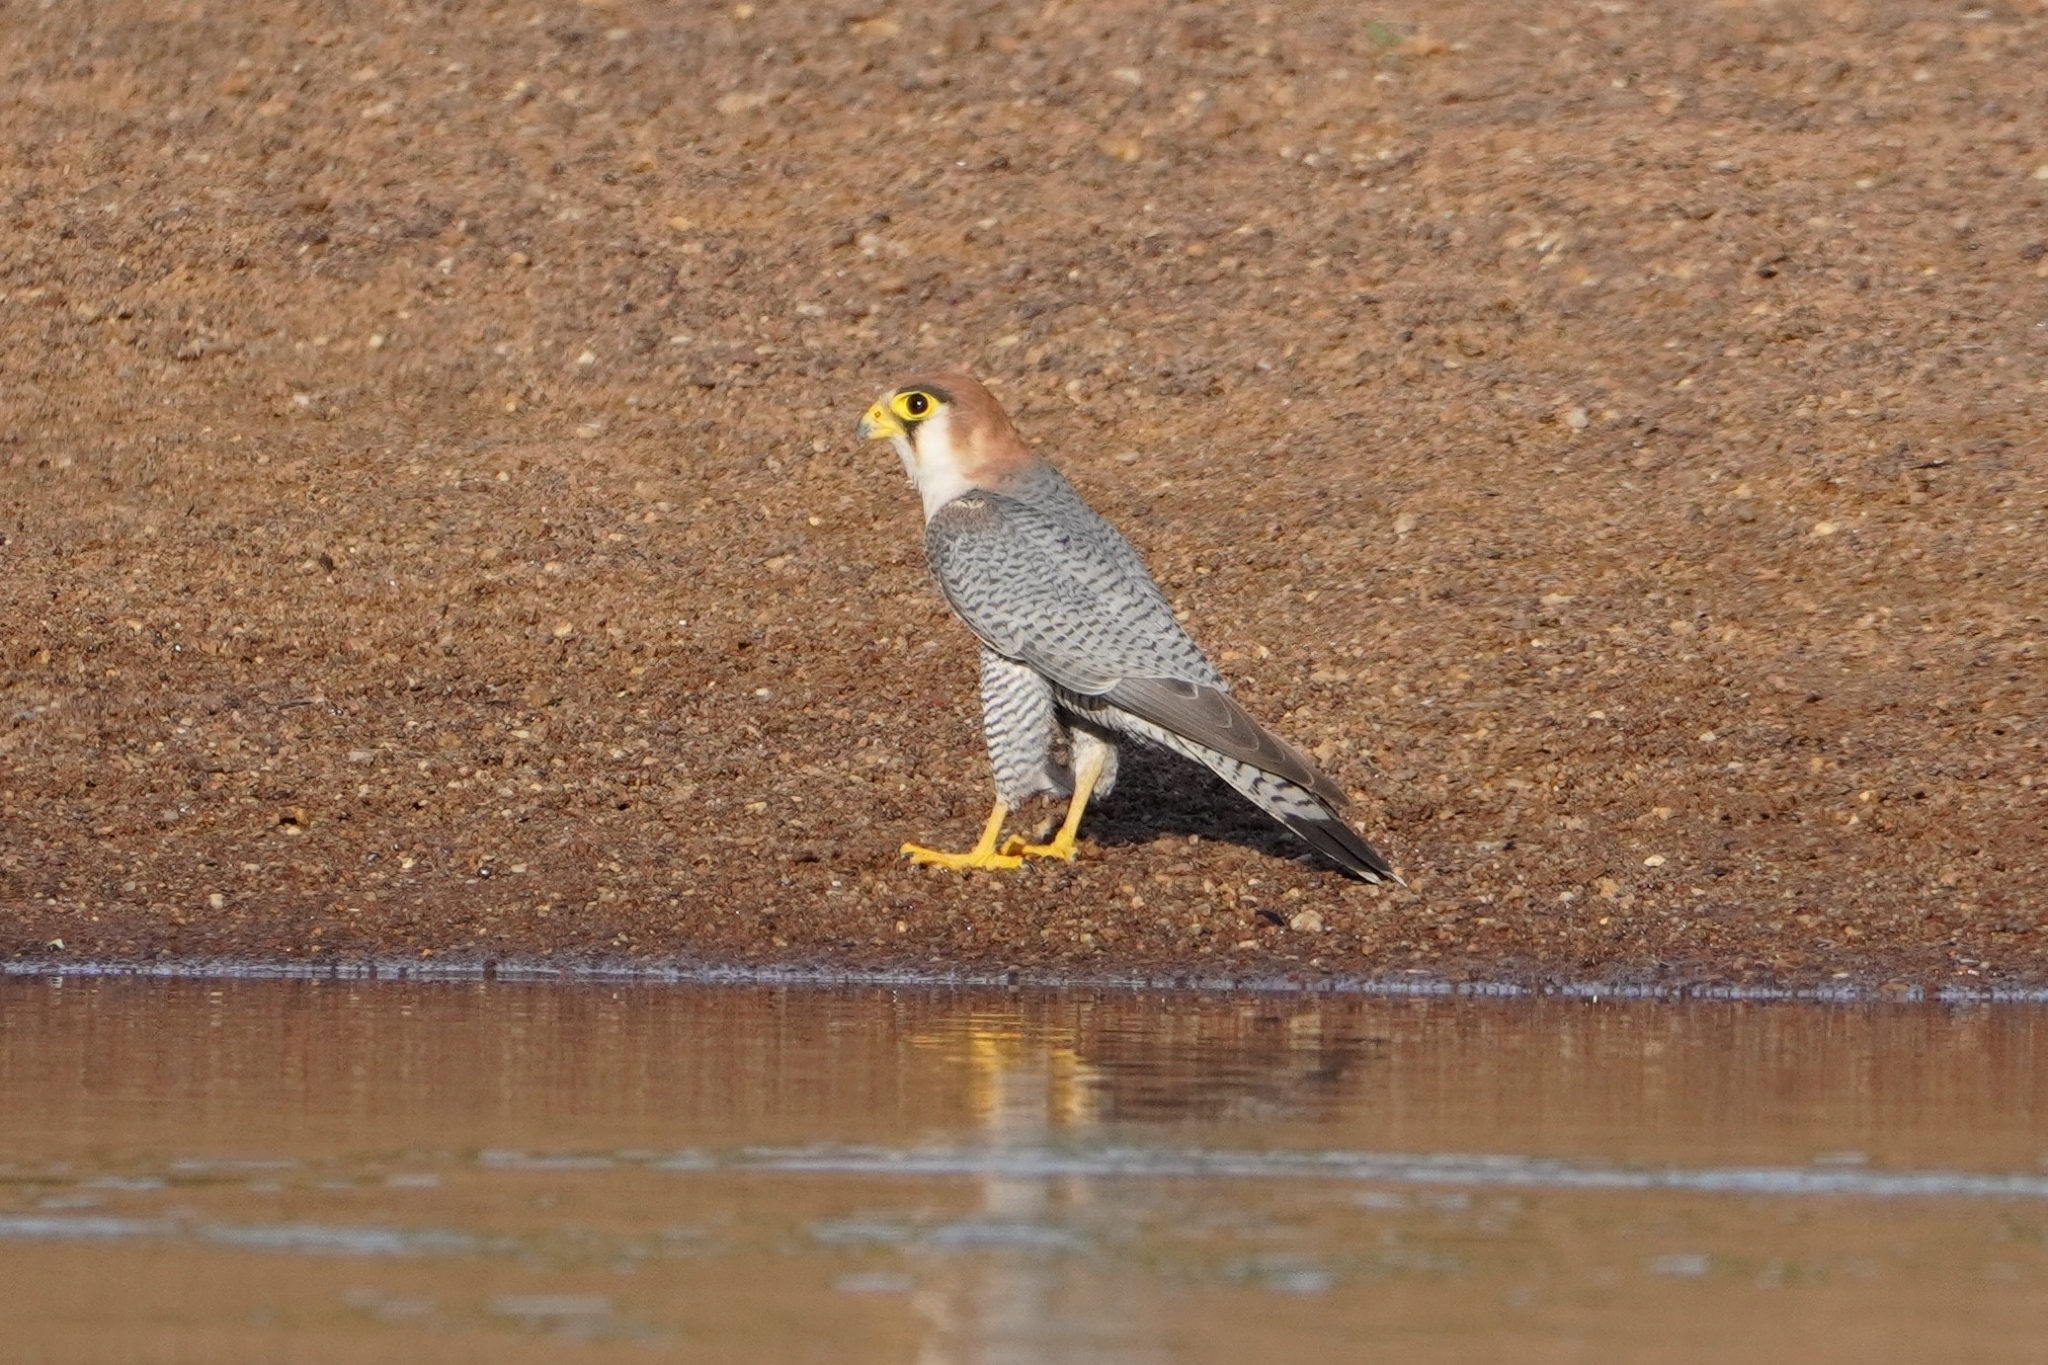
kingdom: Animalia
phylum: Chordata
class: Aves
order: Falconiformes
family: Falconidae
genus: Falco
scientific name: Falco chicquera
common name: Red-necked falcon
